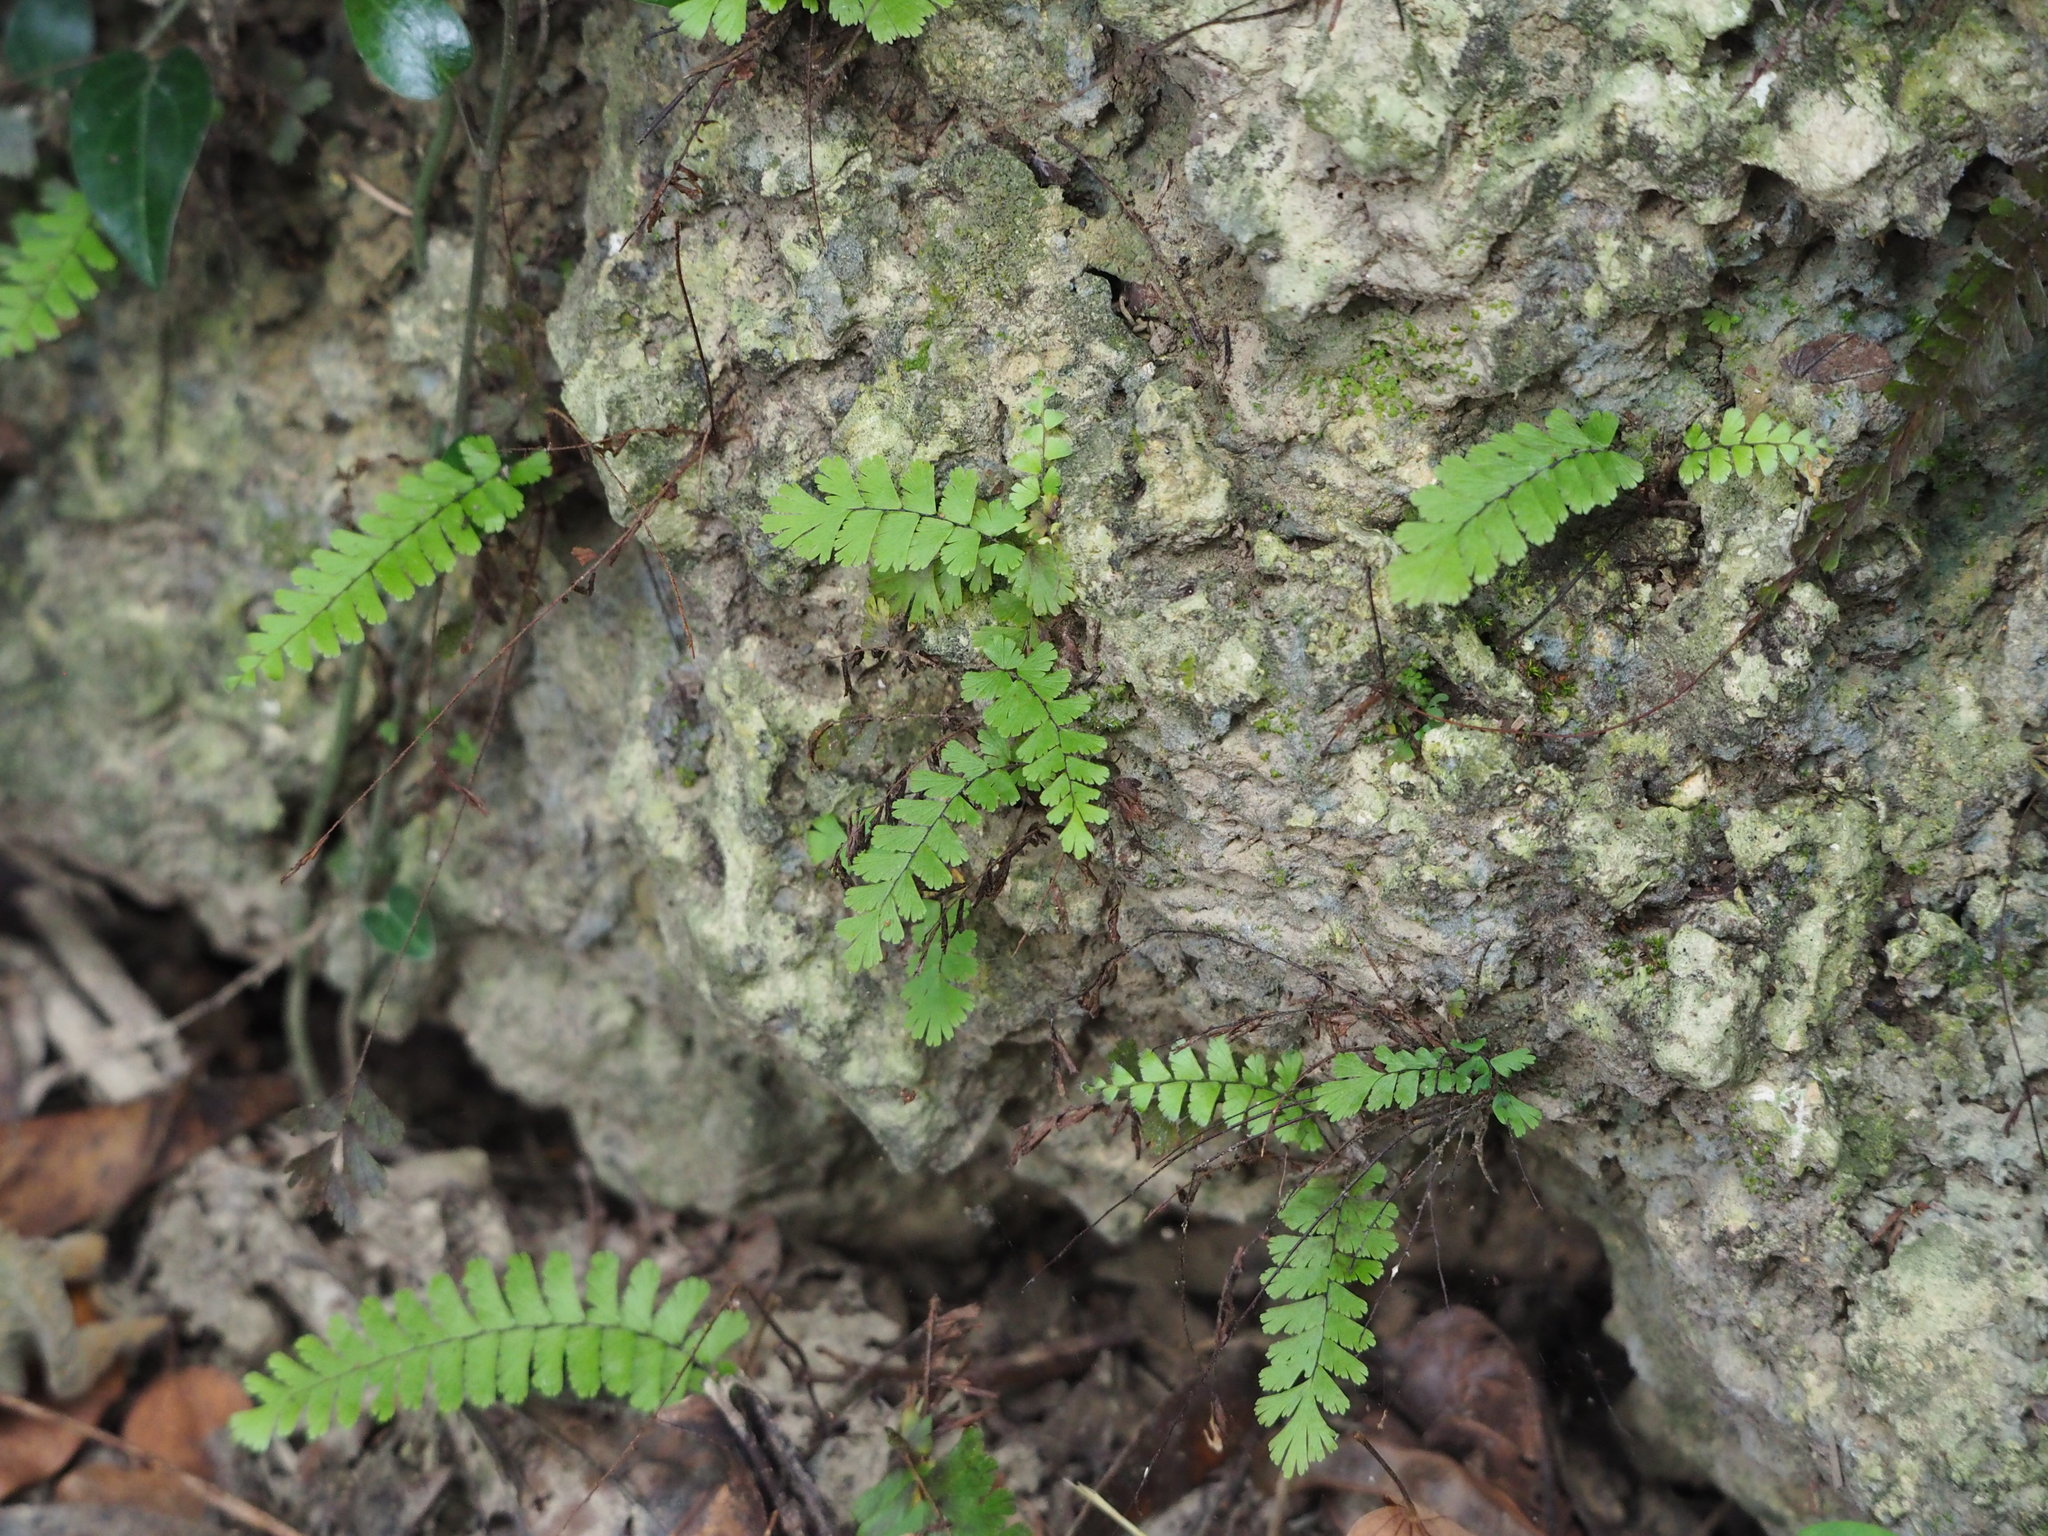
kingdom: Plantae
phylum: Tracheophyta
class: Polypodiopsida
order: Polypodiales
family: Pteridaceae
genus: Adiantum
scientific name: Adiantum ciliatum
